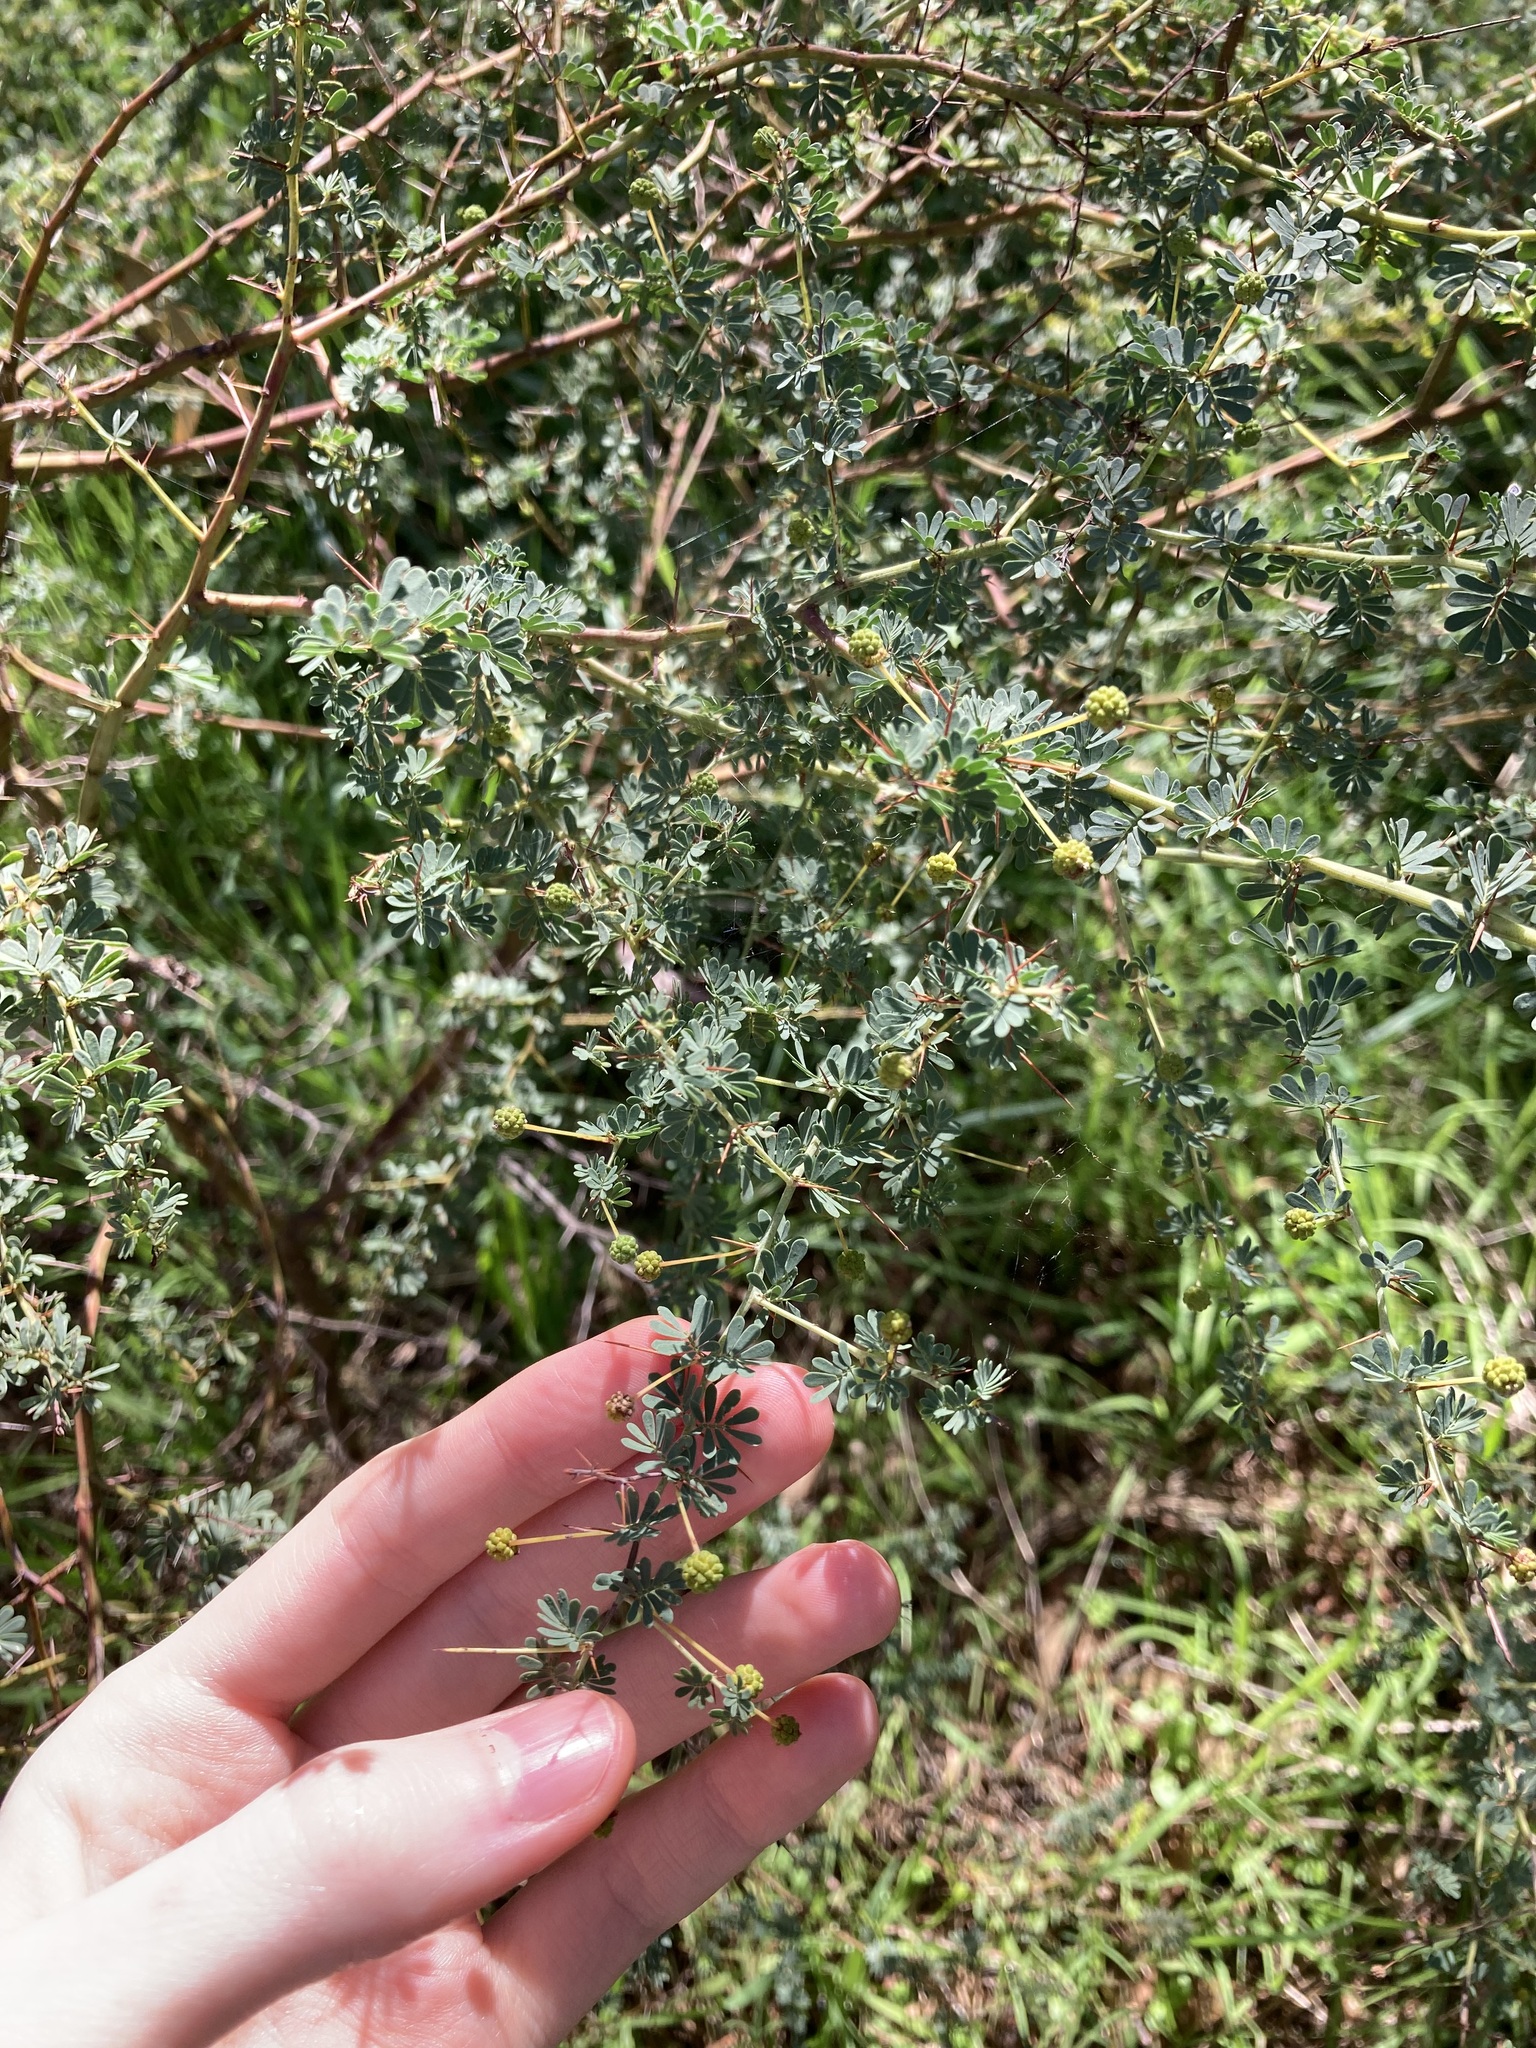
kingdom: Plantae
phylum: Tracheophyta
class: Magnoliopsida
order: Fabales
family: Fabaceae
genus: Acacia
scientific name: Acacia pulchella
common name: Prickly moses
